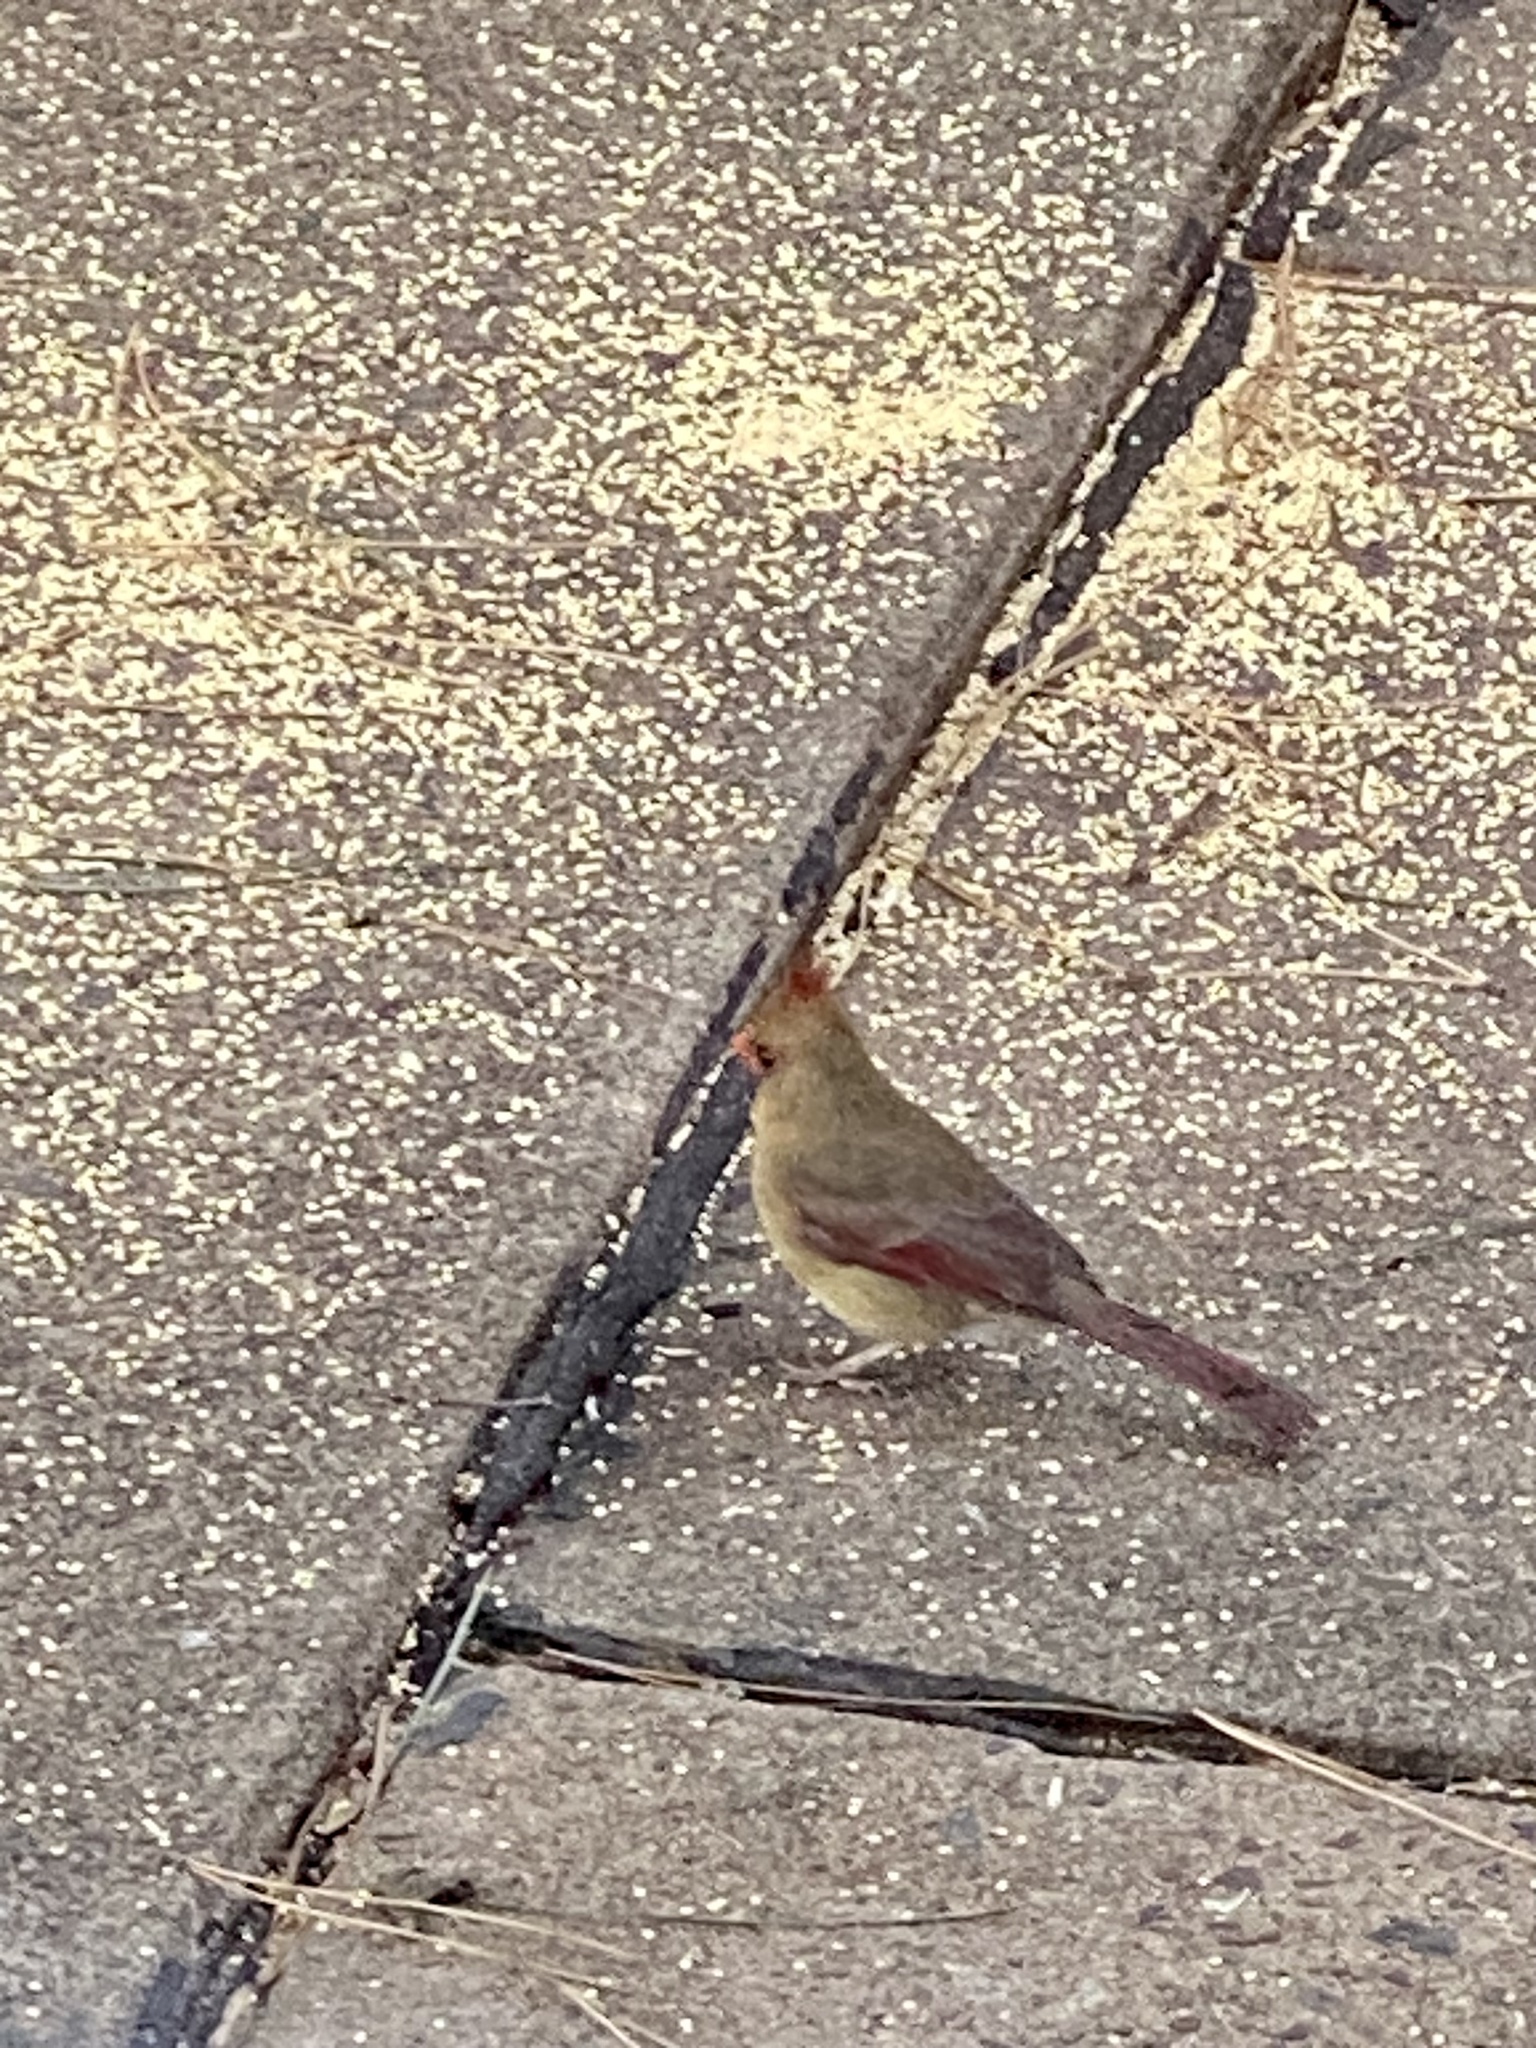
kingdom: Animalia
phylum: Chordata
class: Aves
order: Passeriformes
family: Cardinalidae
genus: Cardinalis
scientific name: Cardinalis cardinalis
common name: Northern cardinal
